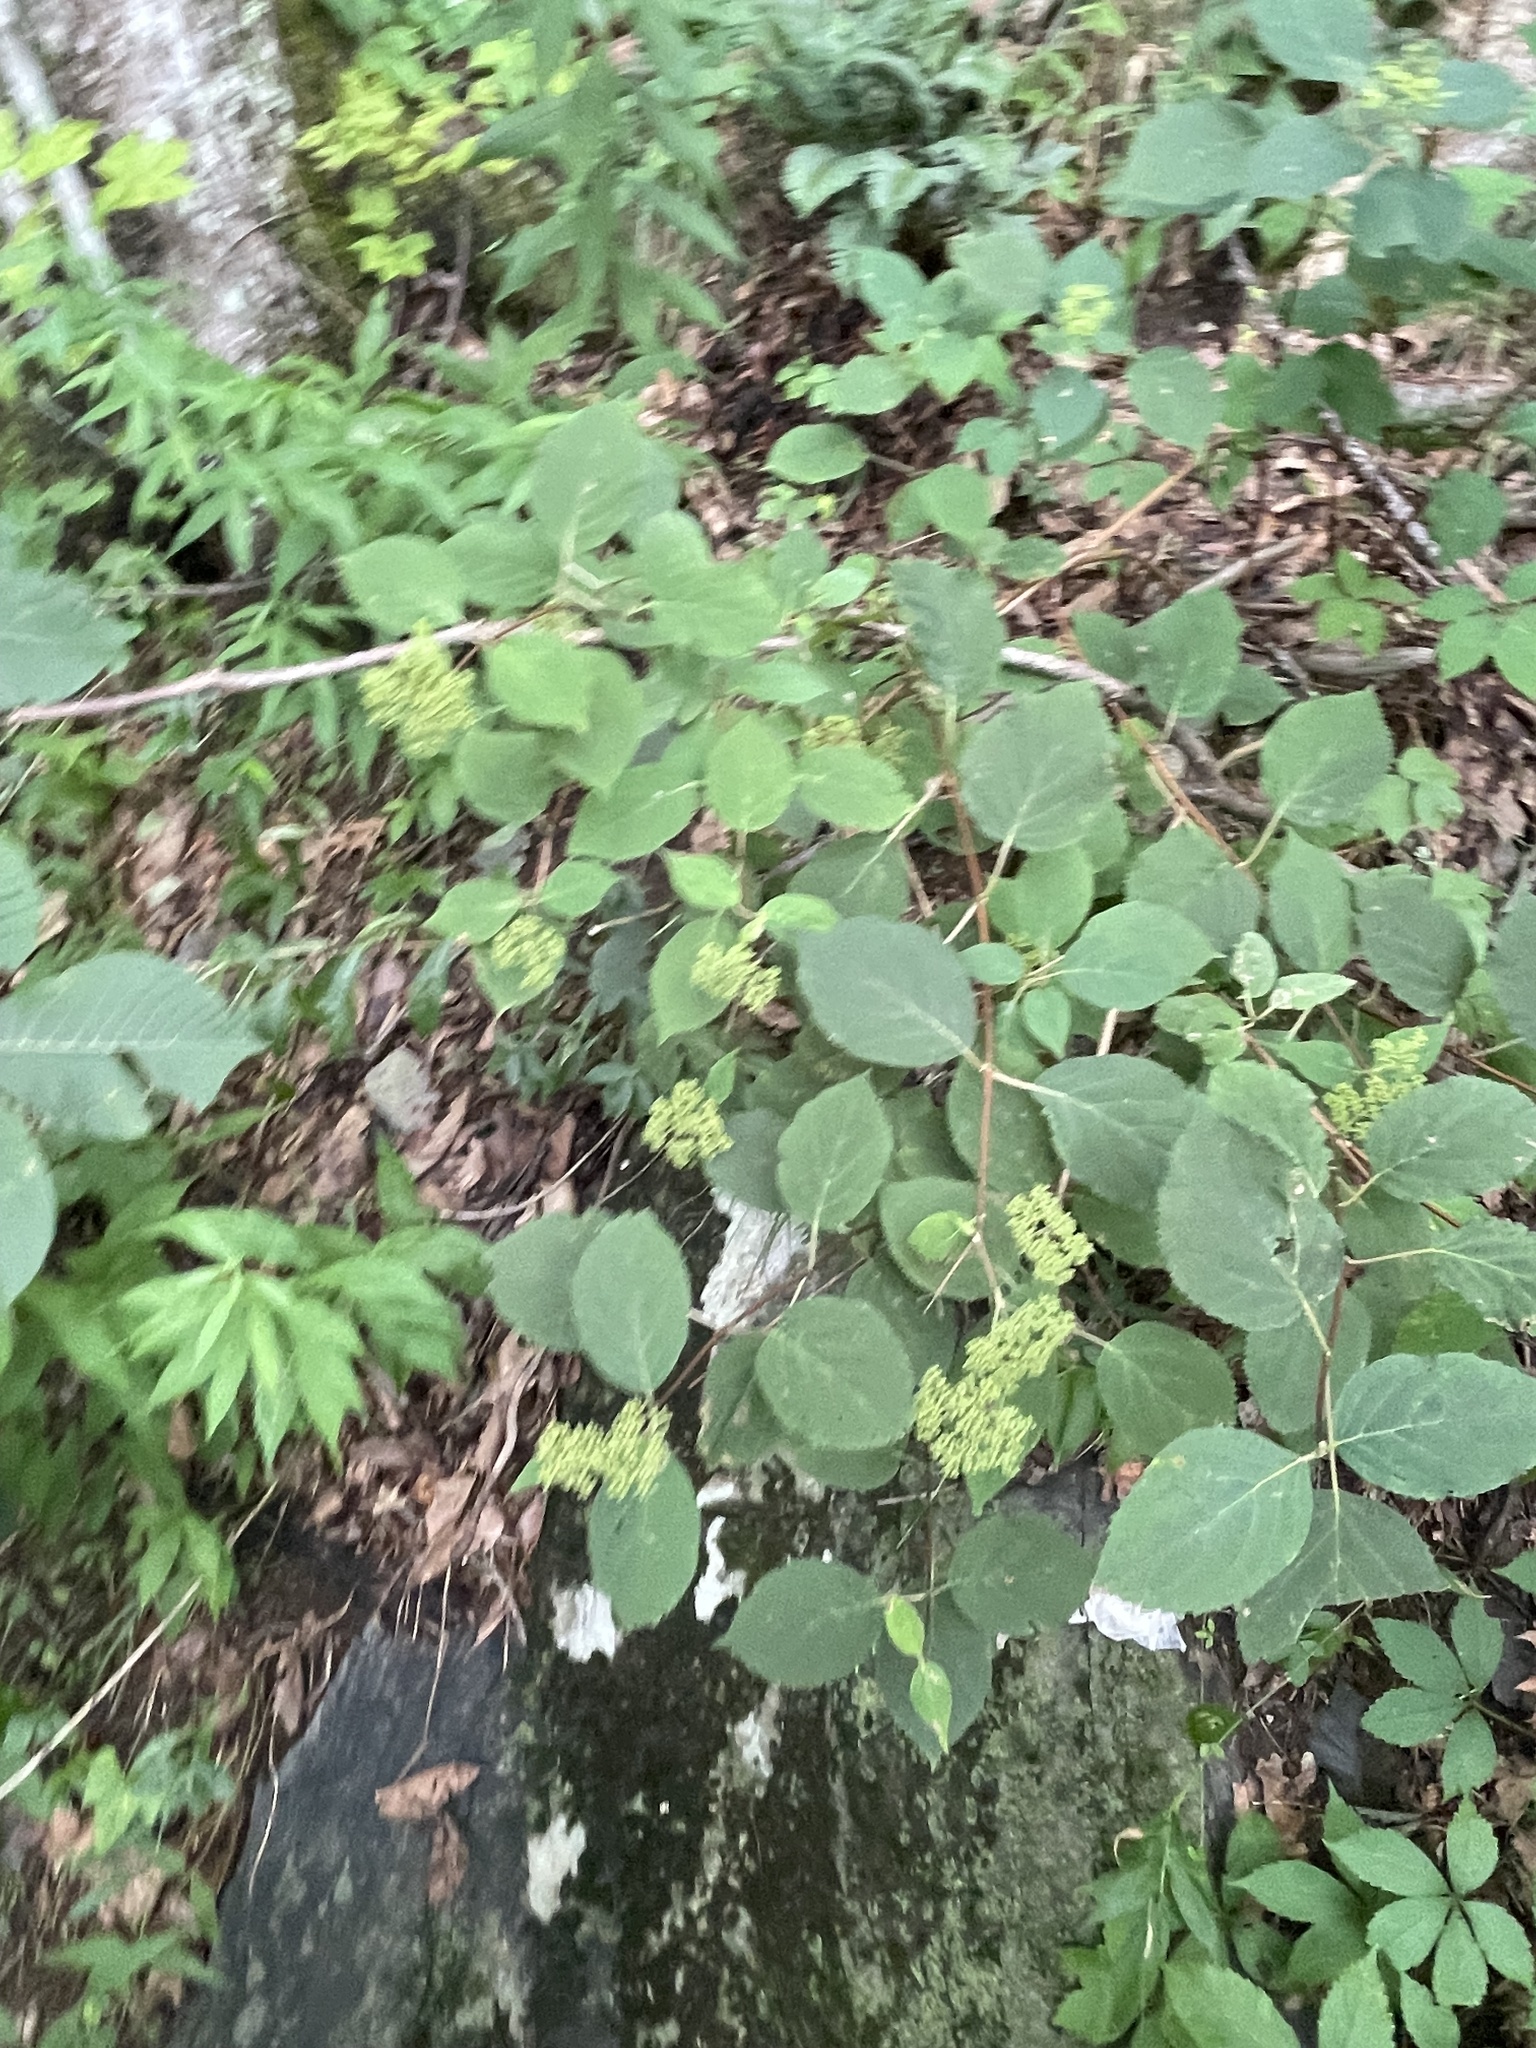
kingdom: Plantae
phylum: Tracheophyta
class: Magnoliopsida
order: Cornales
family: Hydrangeaceae
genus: Hydrangea
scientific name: Hydrangea arborescens
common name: Sevenbark
